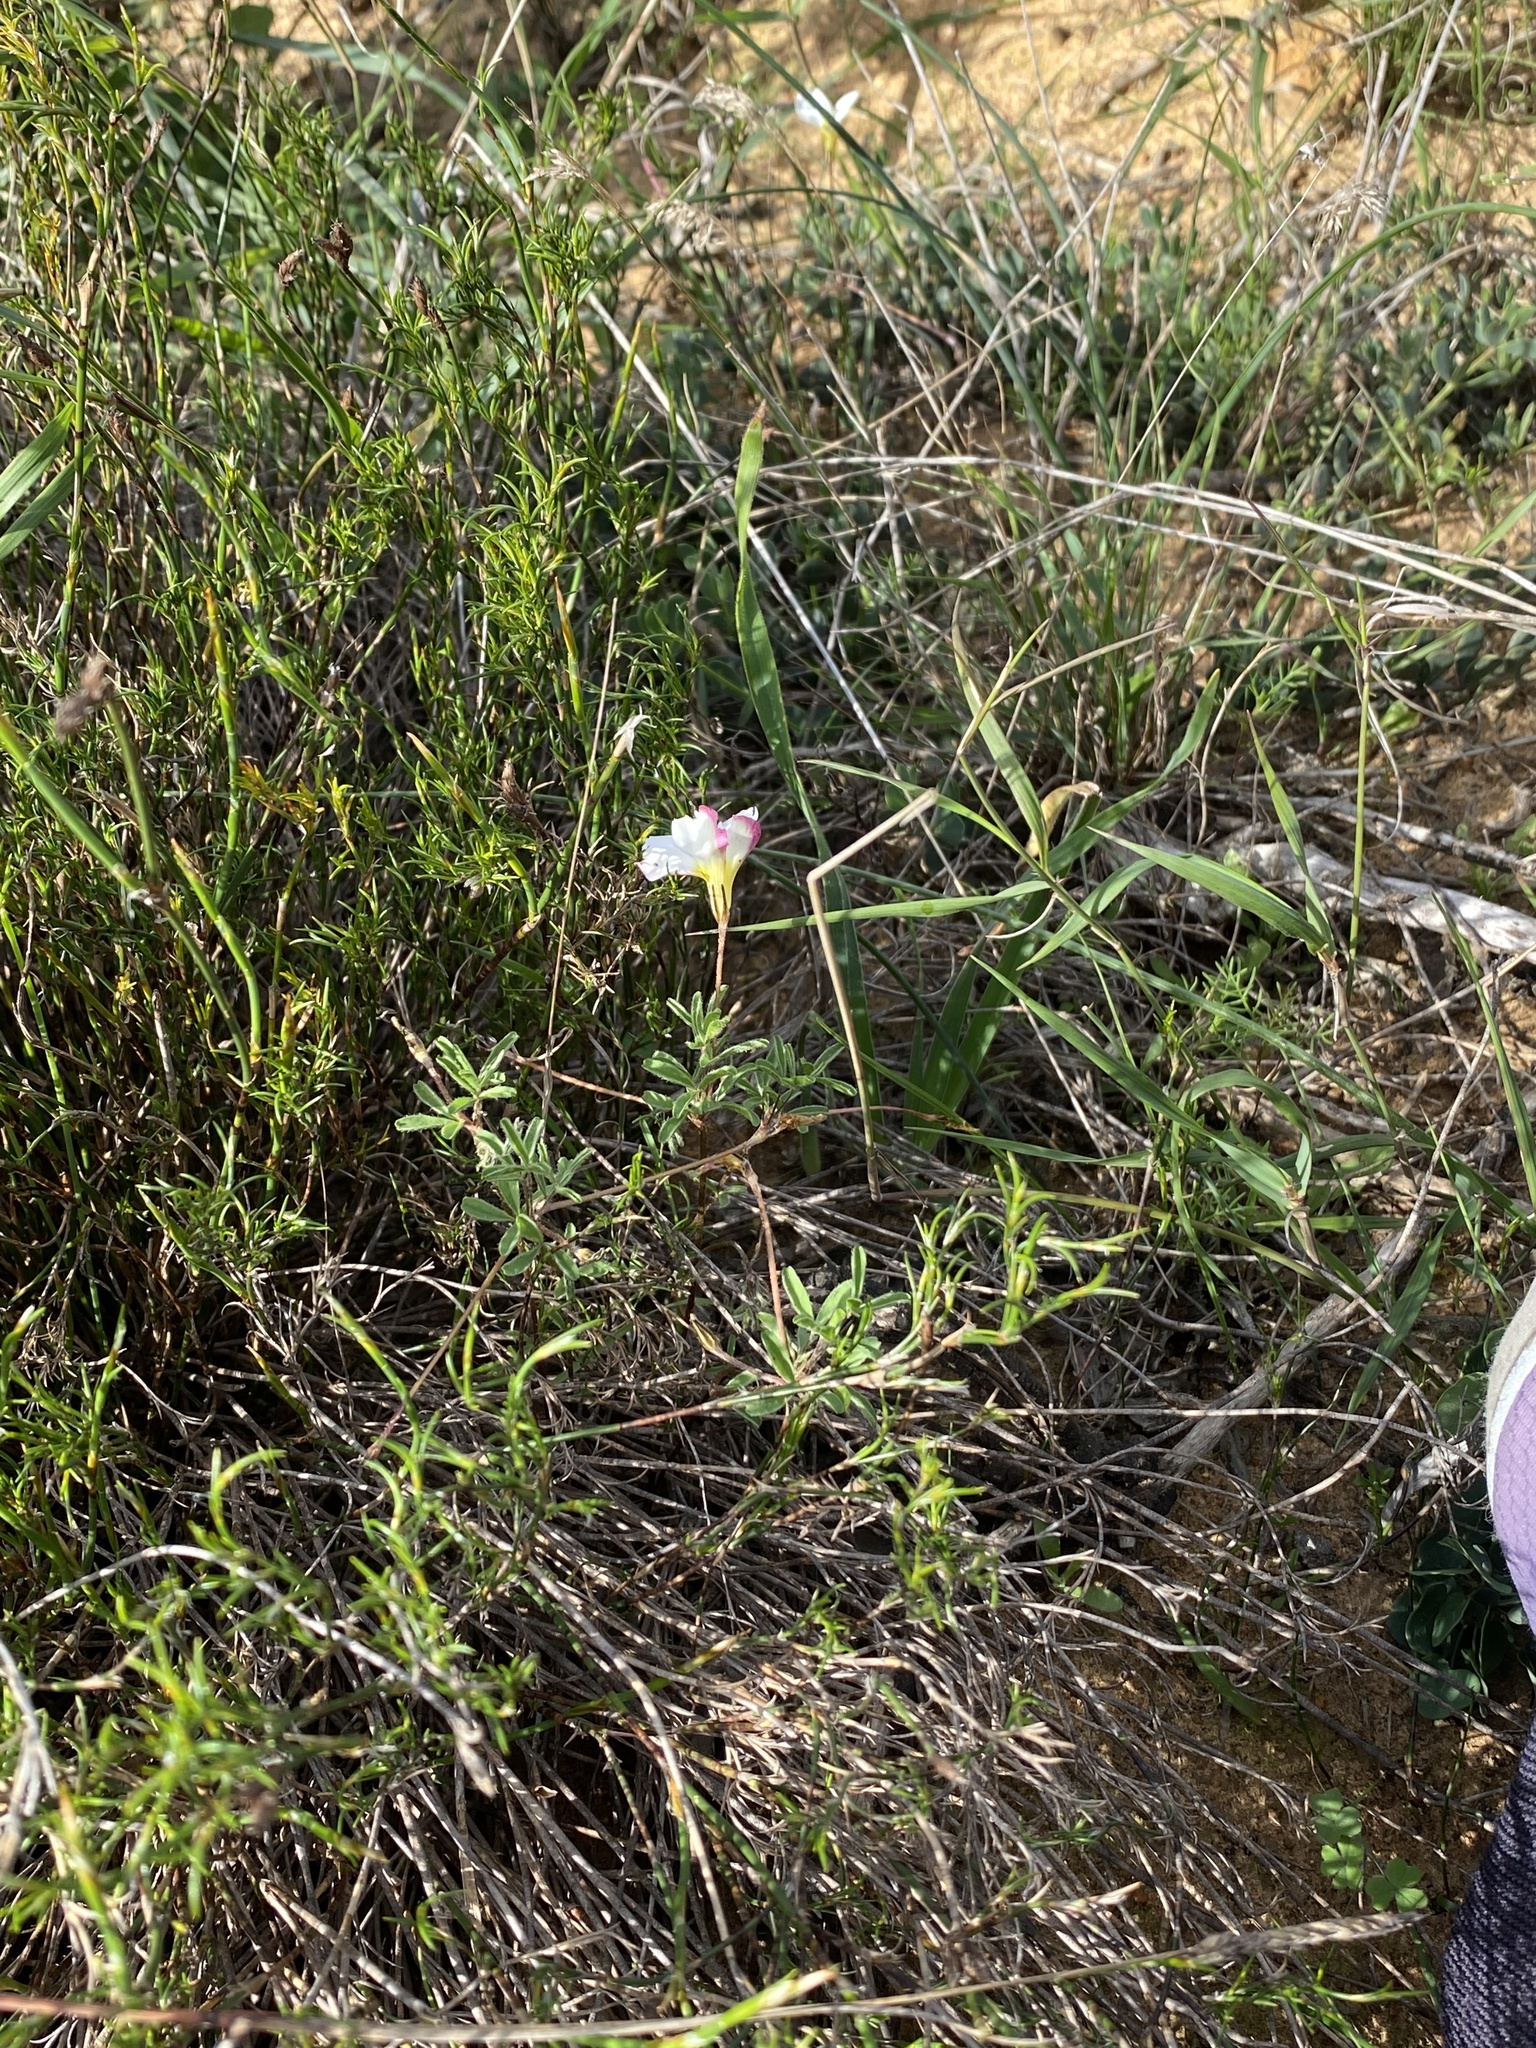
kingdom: Plantae
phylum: Tracheophyta
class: Magnoliopsida
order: Oxalidales
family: Oxalidaceae
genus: Oxalis
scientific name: Oxalis falcatula
